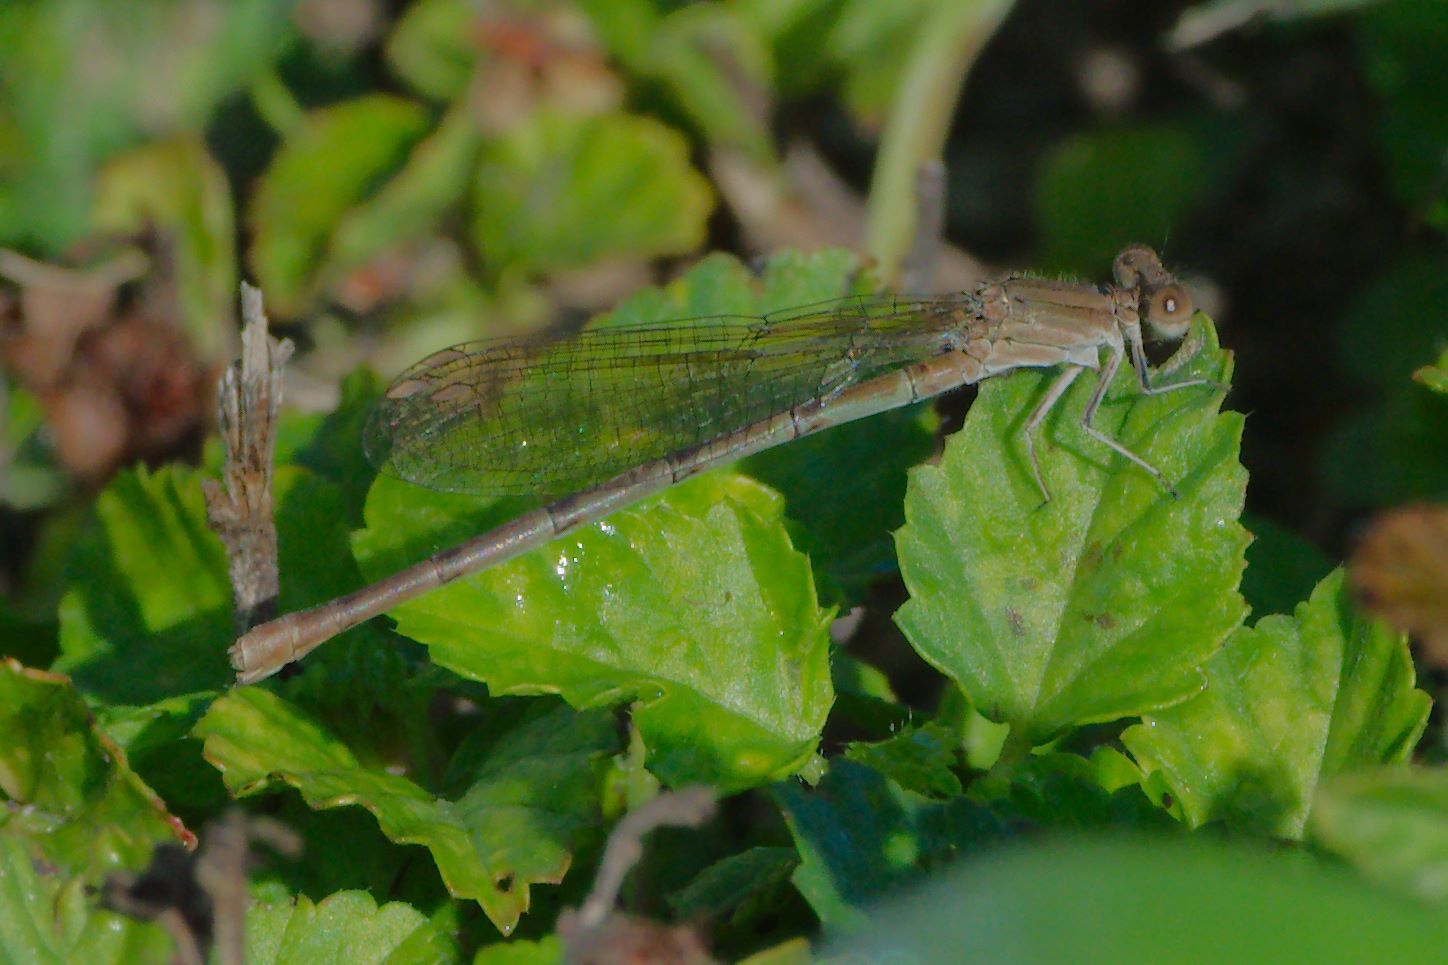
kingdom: Animalia
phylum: Arthropoda
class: Insecta
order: Odonata
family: Coenagrionidae
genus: Argia
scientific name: Argia sedula
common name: Blue-ringed dancer
